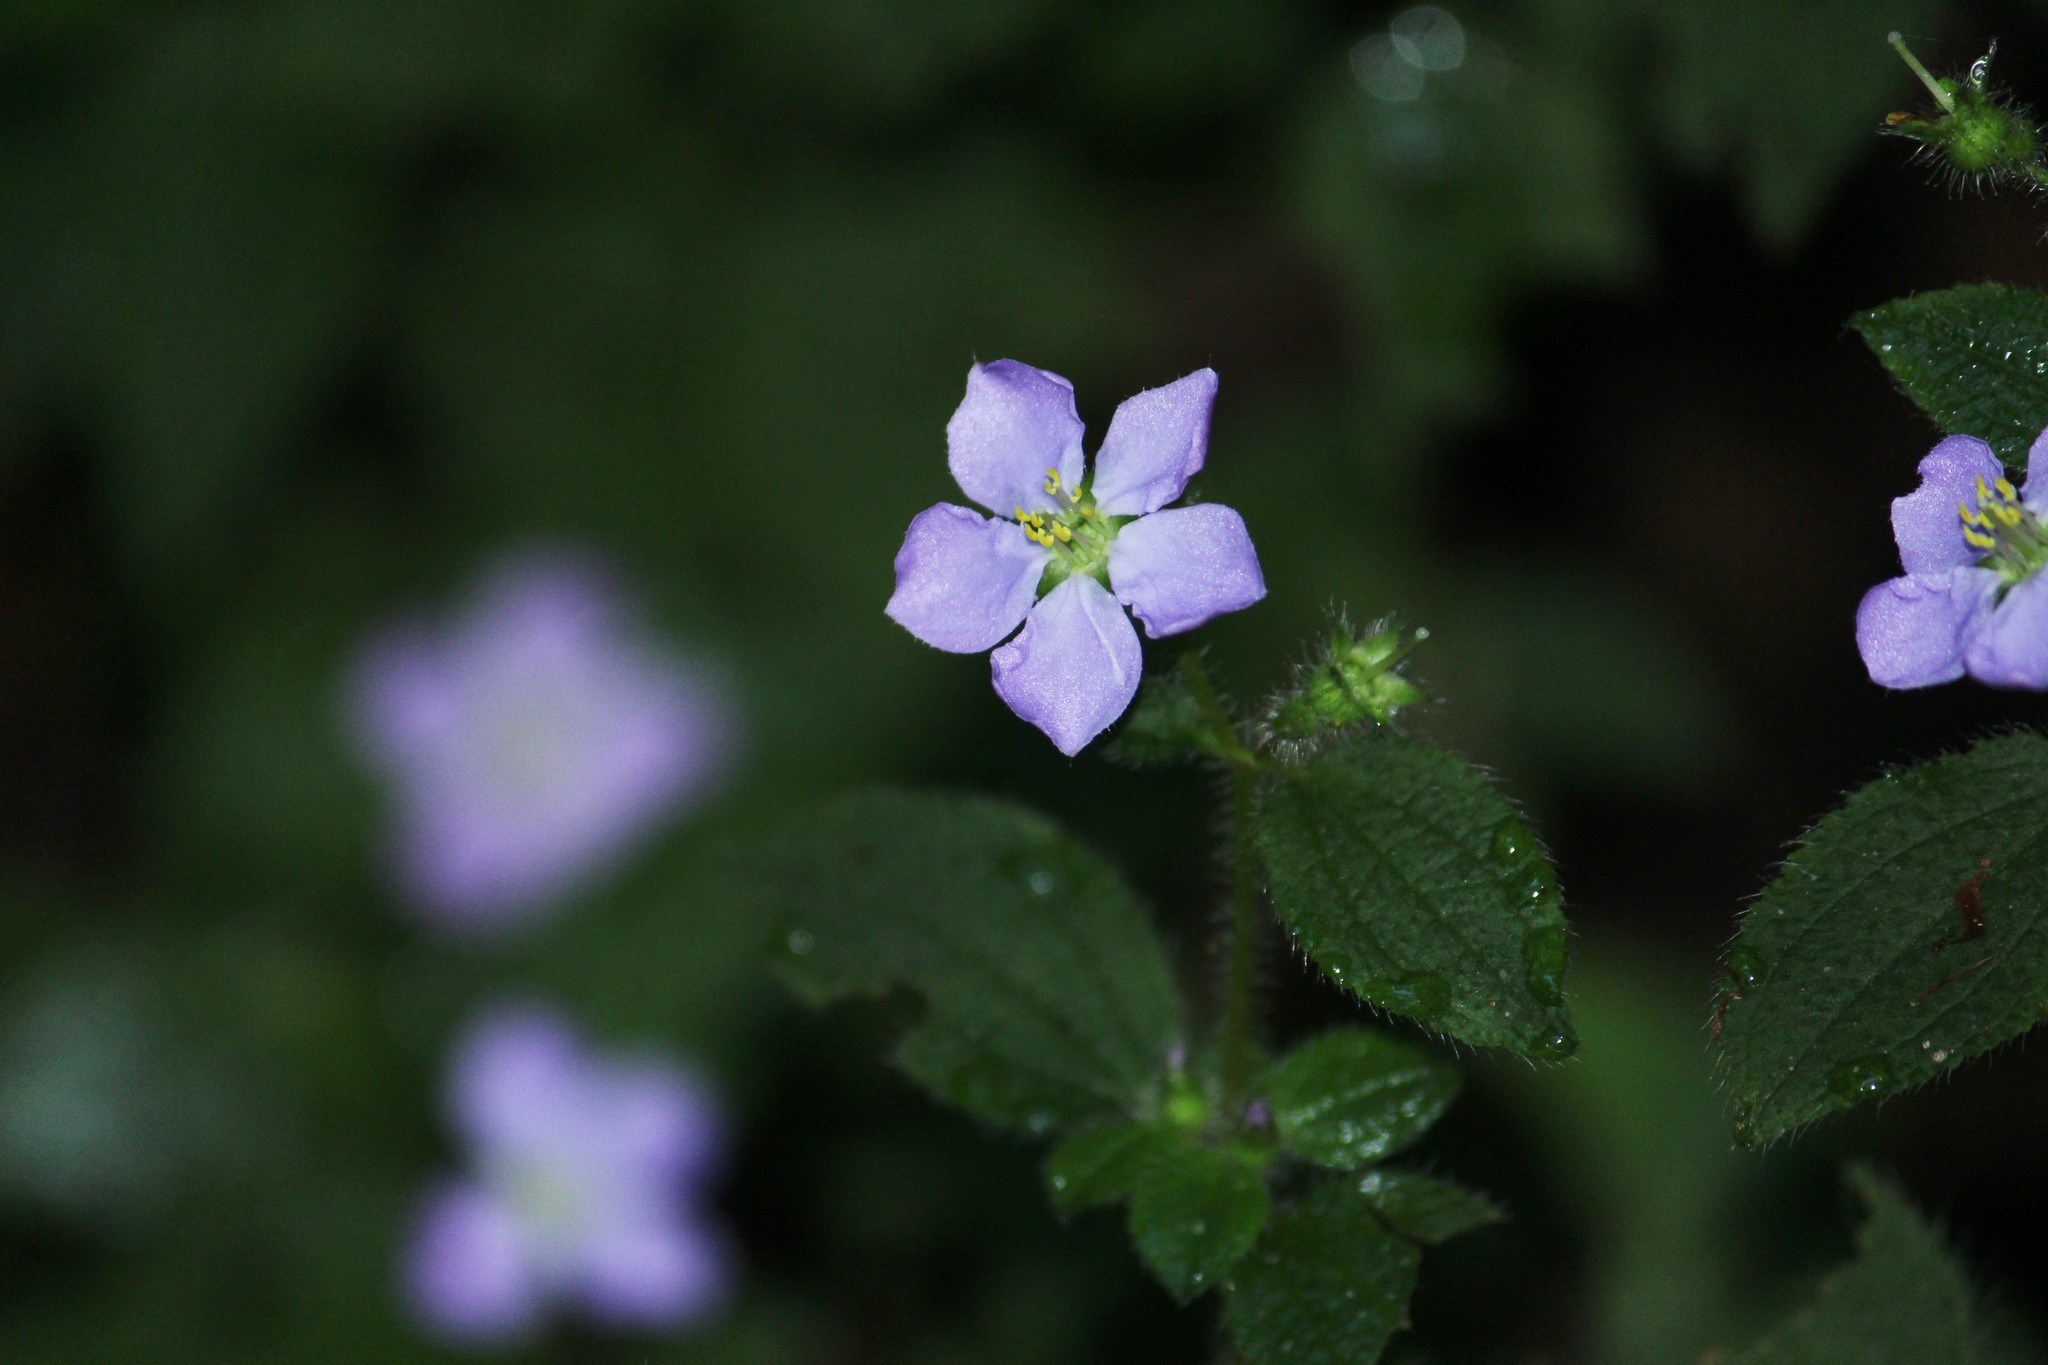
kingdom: Plantae
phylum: Tracheophyta
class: Magnoliopsida
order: Myrtales
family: Melastomataceae
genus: Chaetogastra
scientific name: Chaetogastra clinopodifolia
